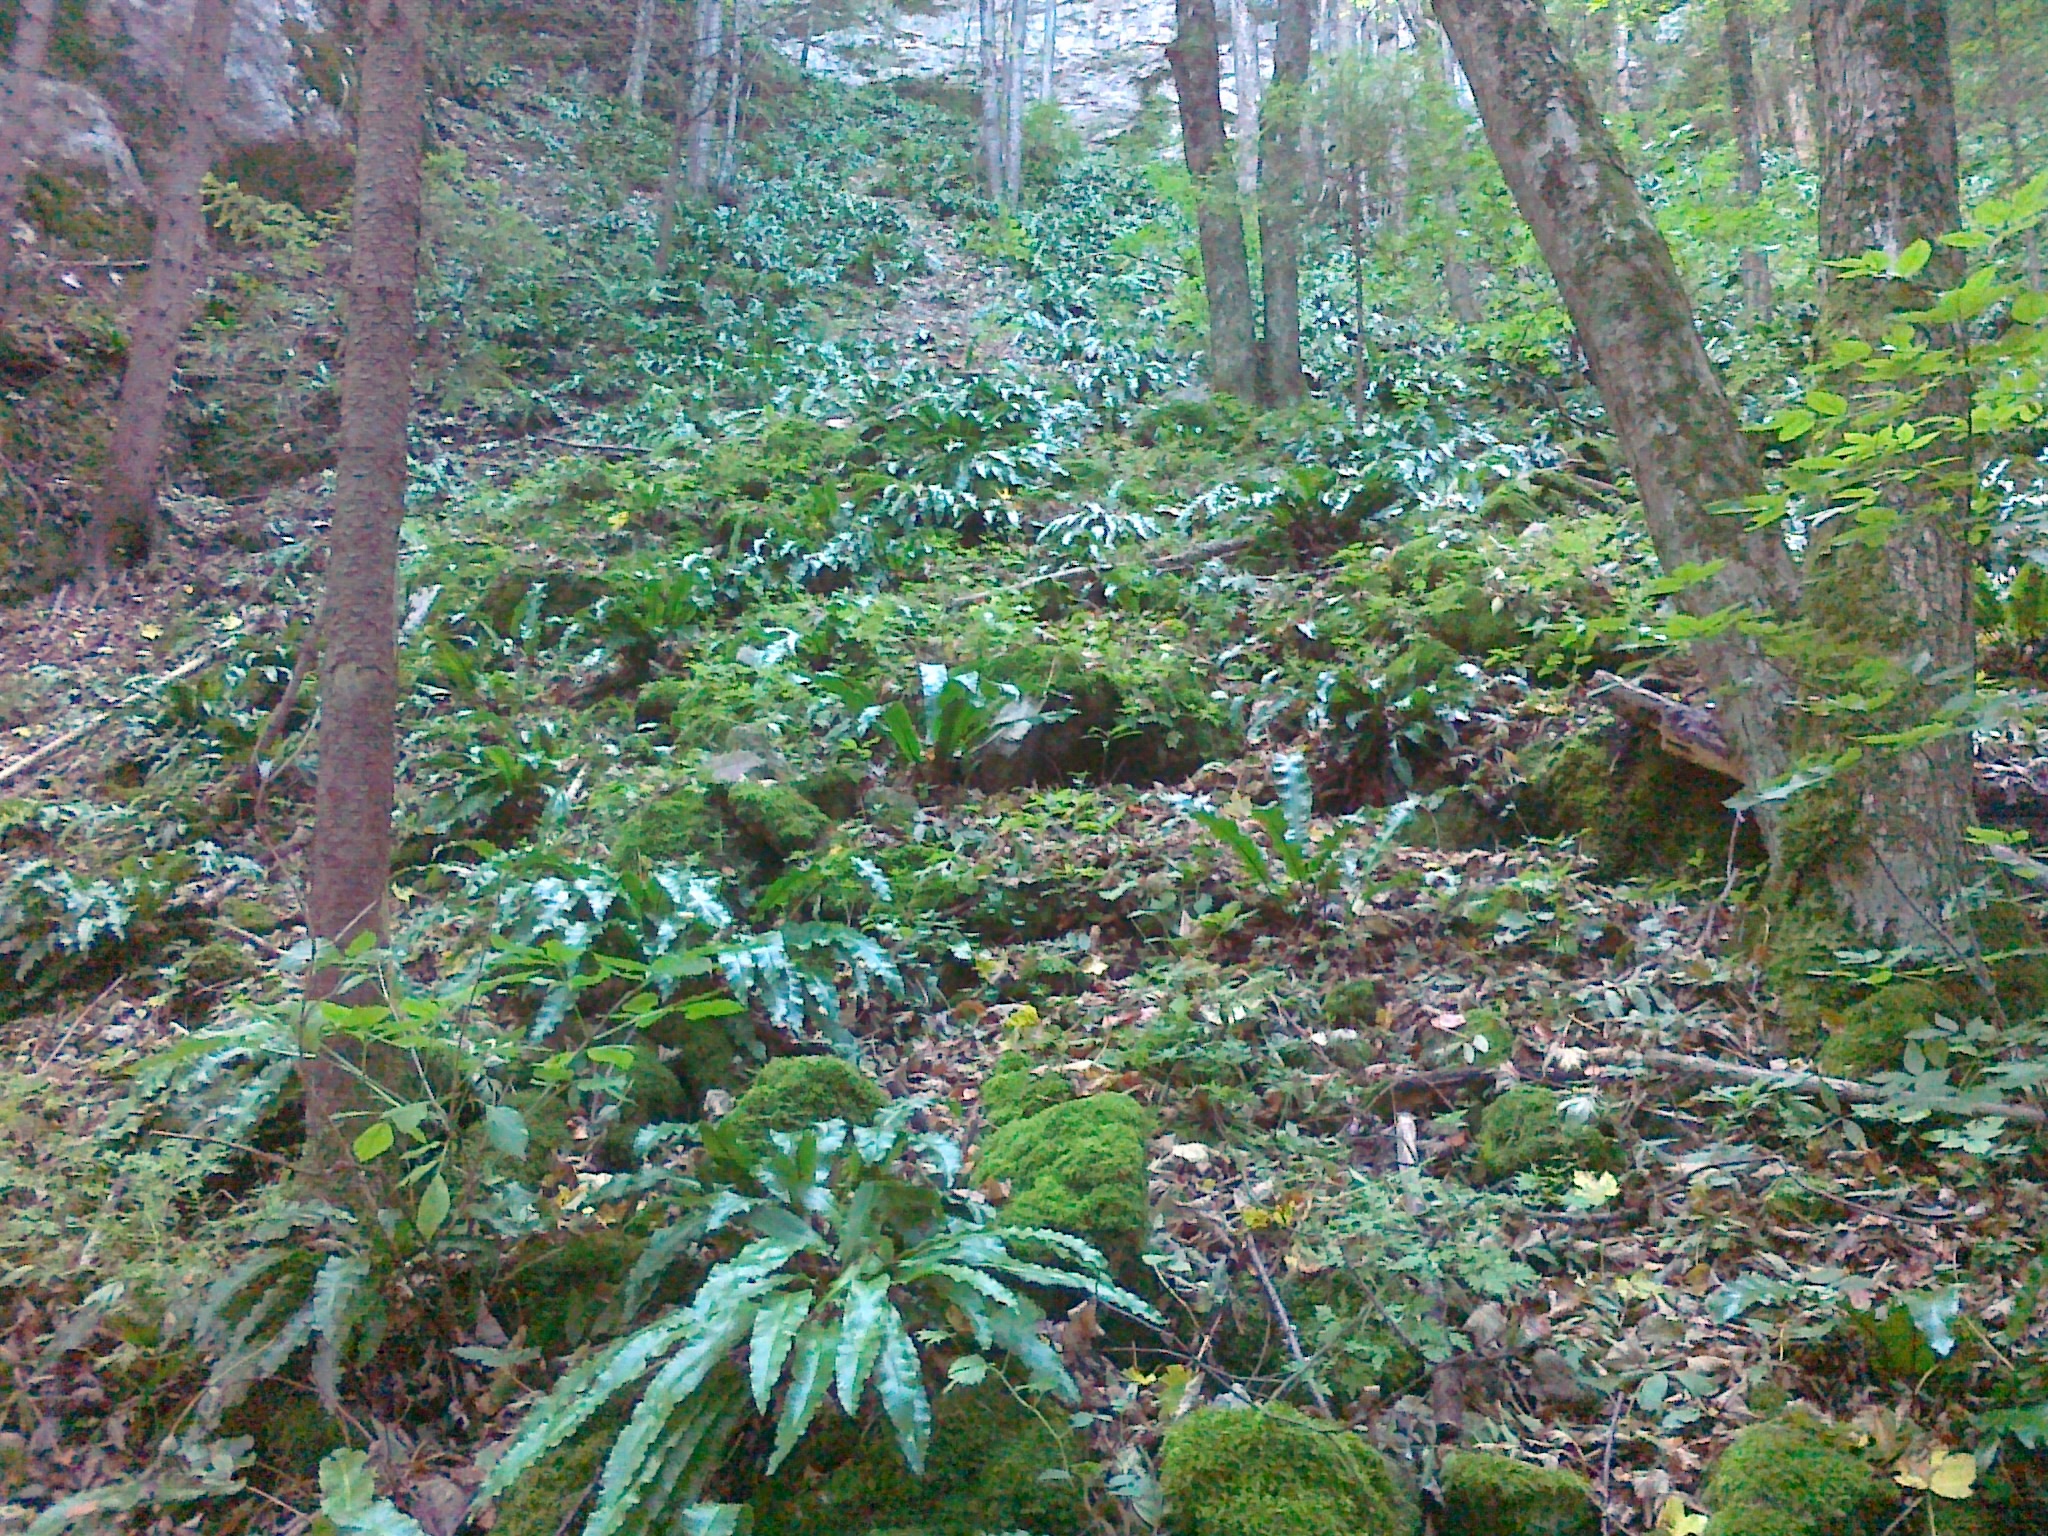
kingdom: Plantae
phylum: Tracheophyta
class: Polypodiopsida
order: Polypodiales
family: Aspleniaceae
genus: Asplenium
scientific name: Asplenium scolopendrium
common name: Hart's-tongue fern
